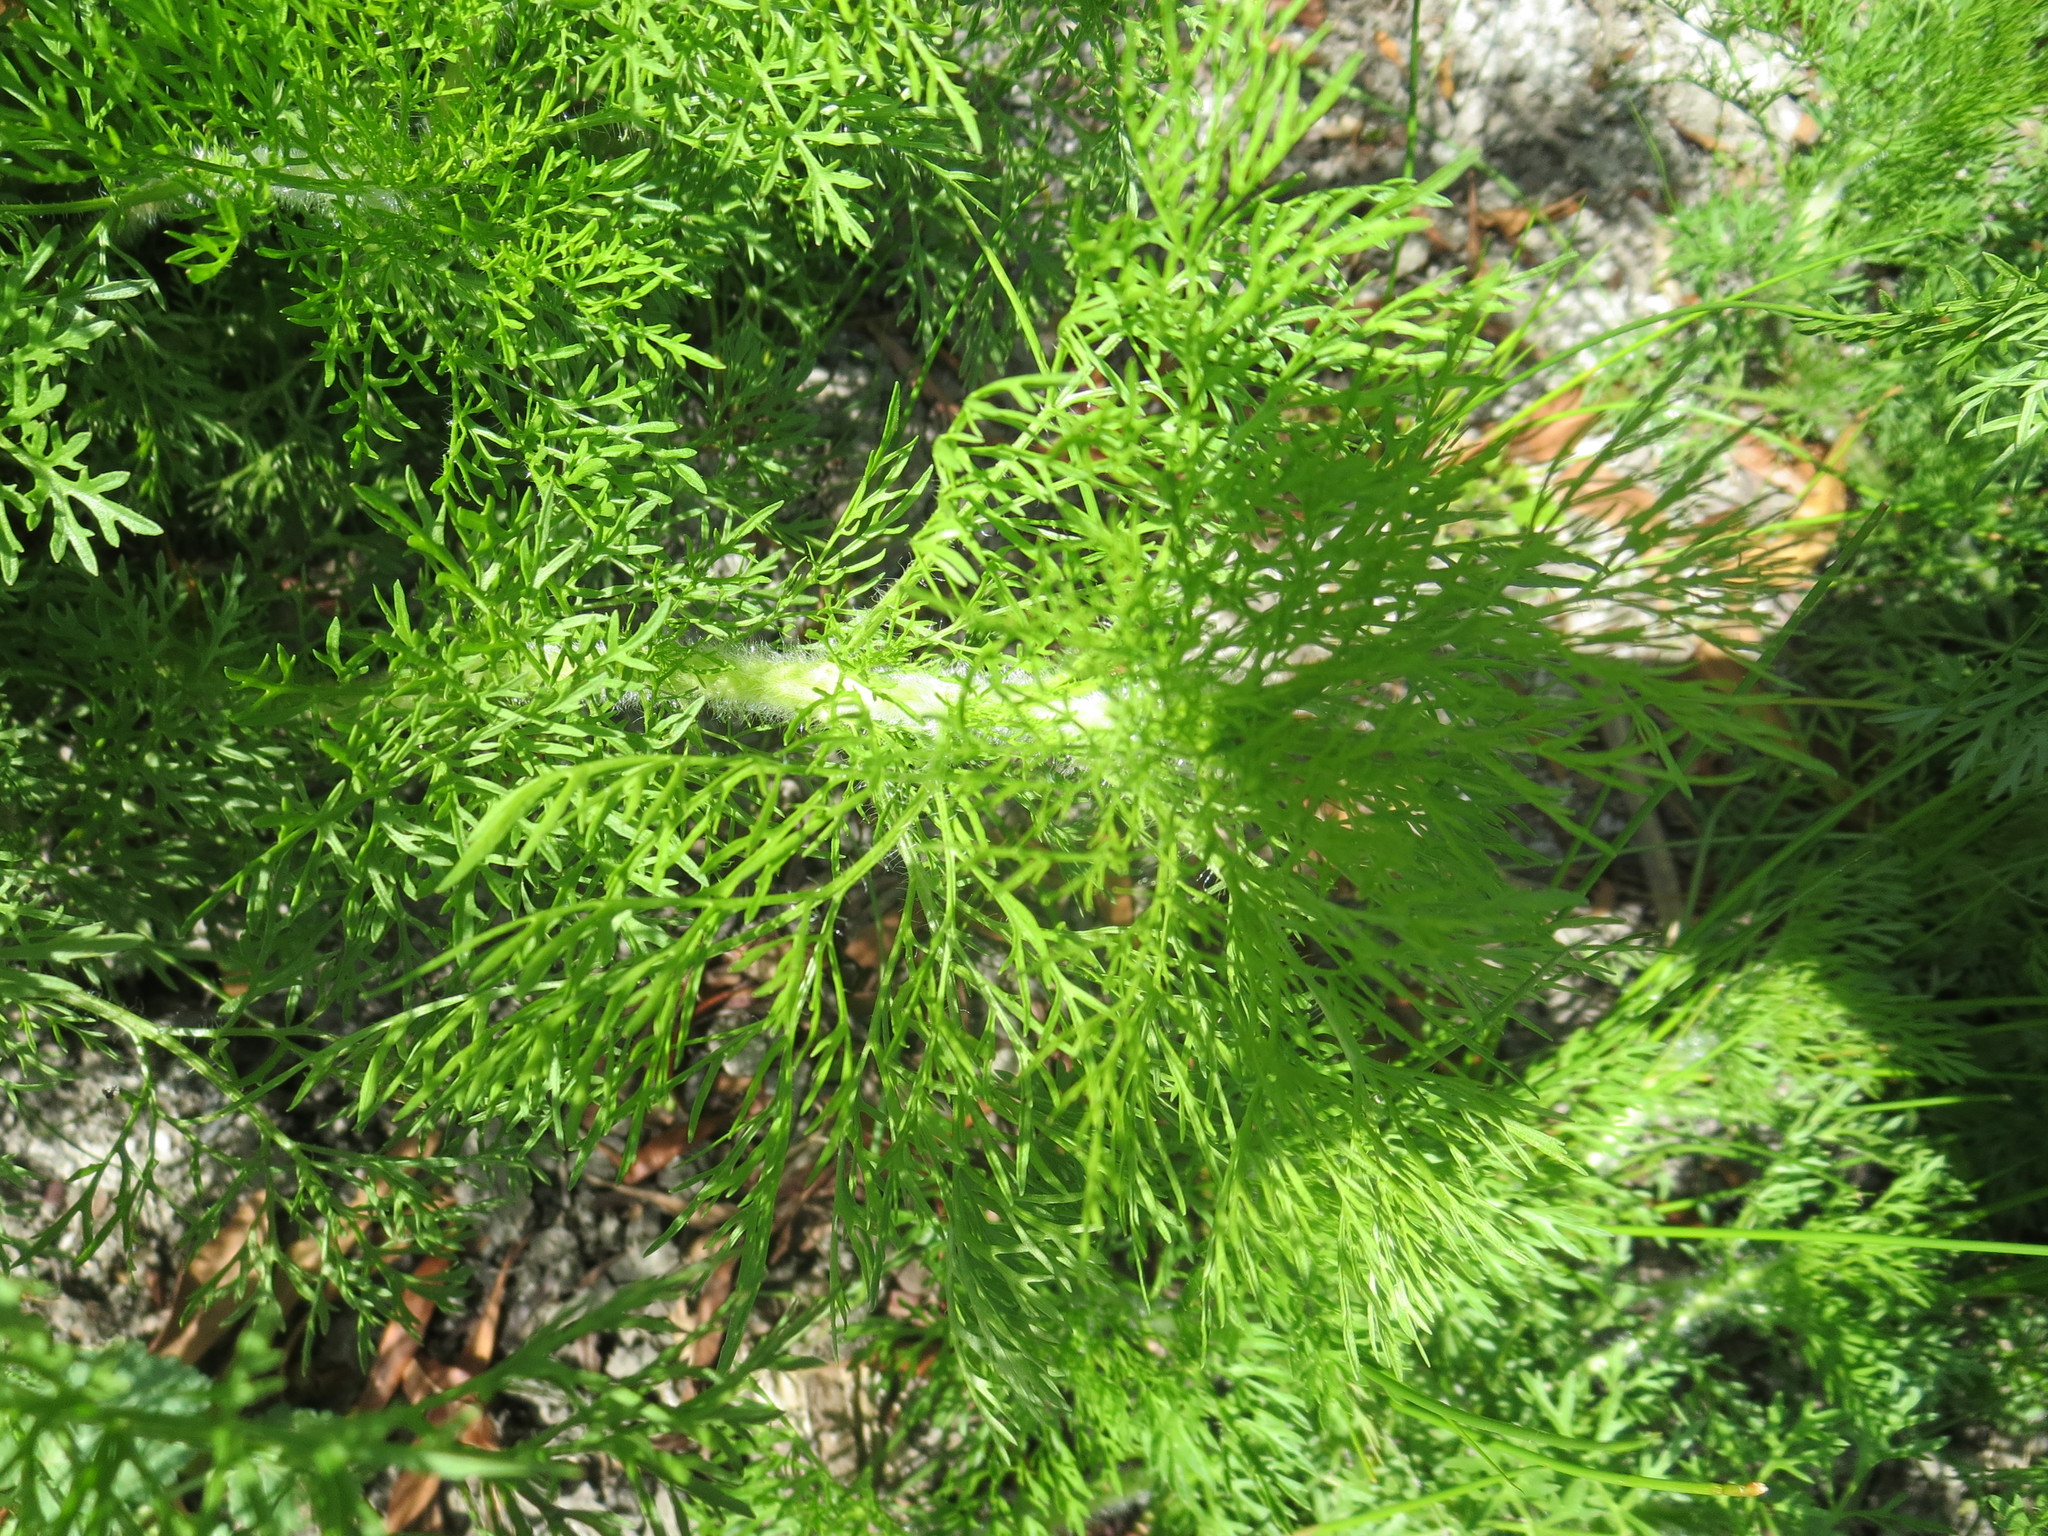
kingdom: Plantae
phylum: Tracheophyta
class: Magnoliopsida
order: Asterales
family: Asteraceae
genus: Eupatorium
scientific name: Eupatorium capillifolium
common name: Dog-fennel
